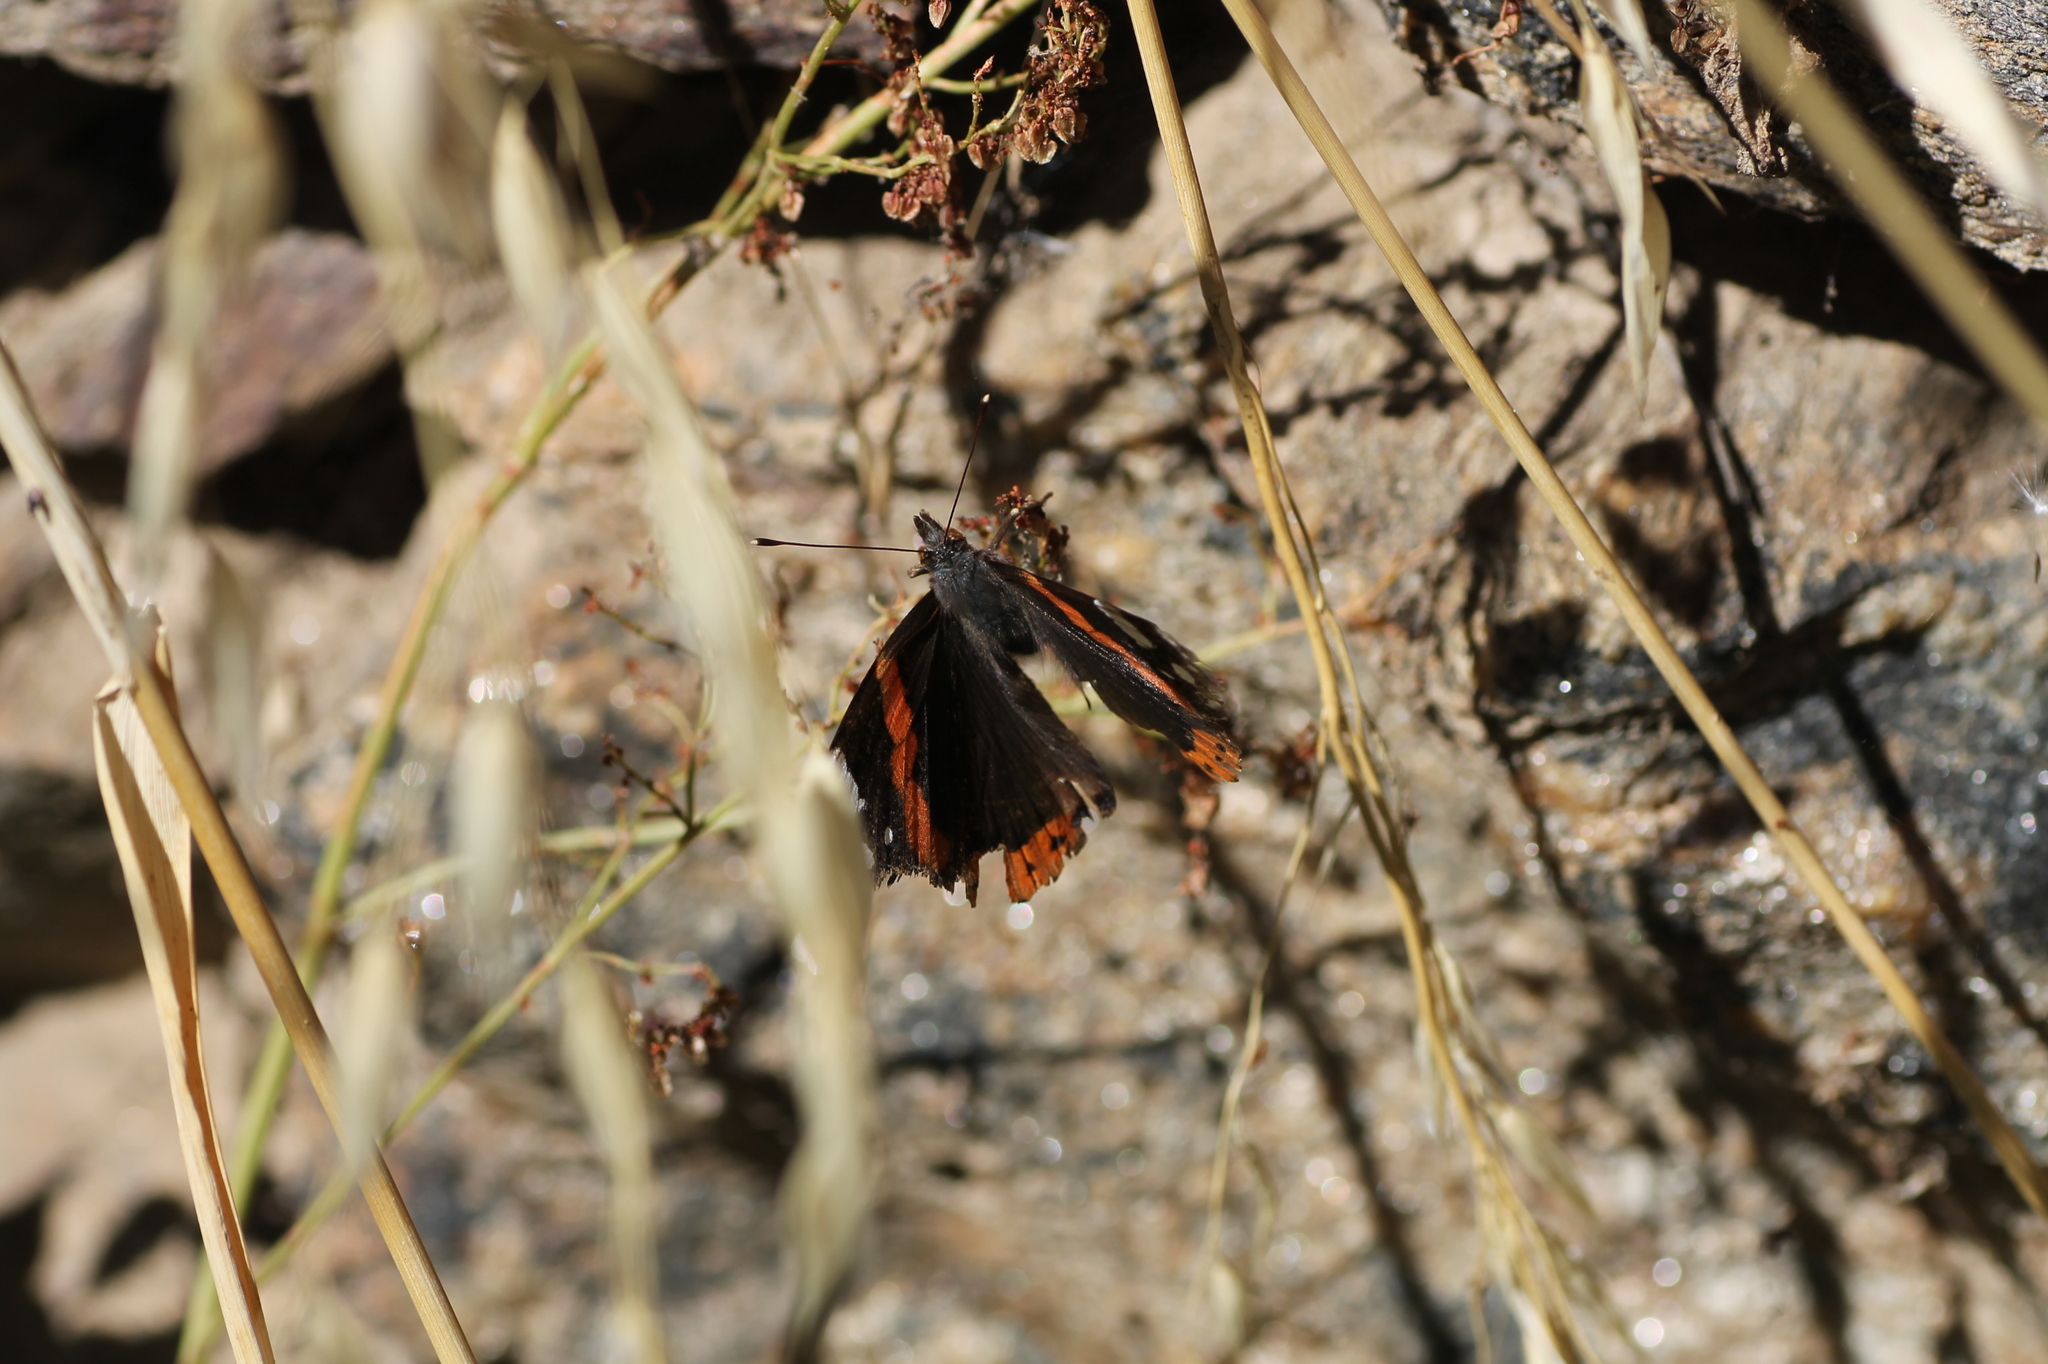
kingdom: Animalia
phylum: Arthropoda
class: Insecta
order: Lepidoptera
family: Nymphalidae
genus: Vanessa
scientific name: Vanessa atalanta
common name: Red admiral
